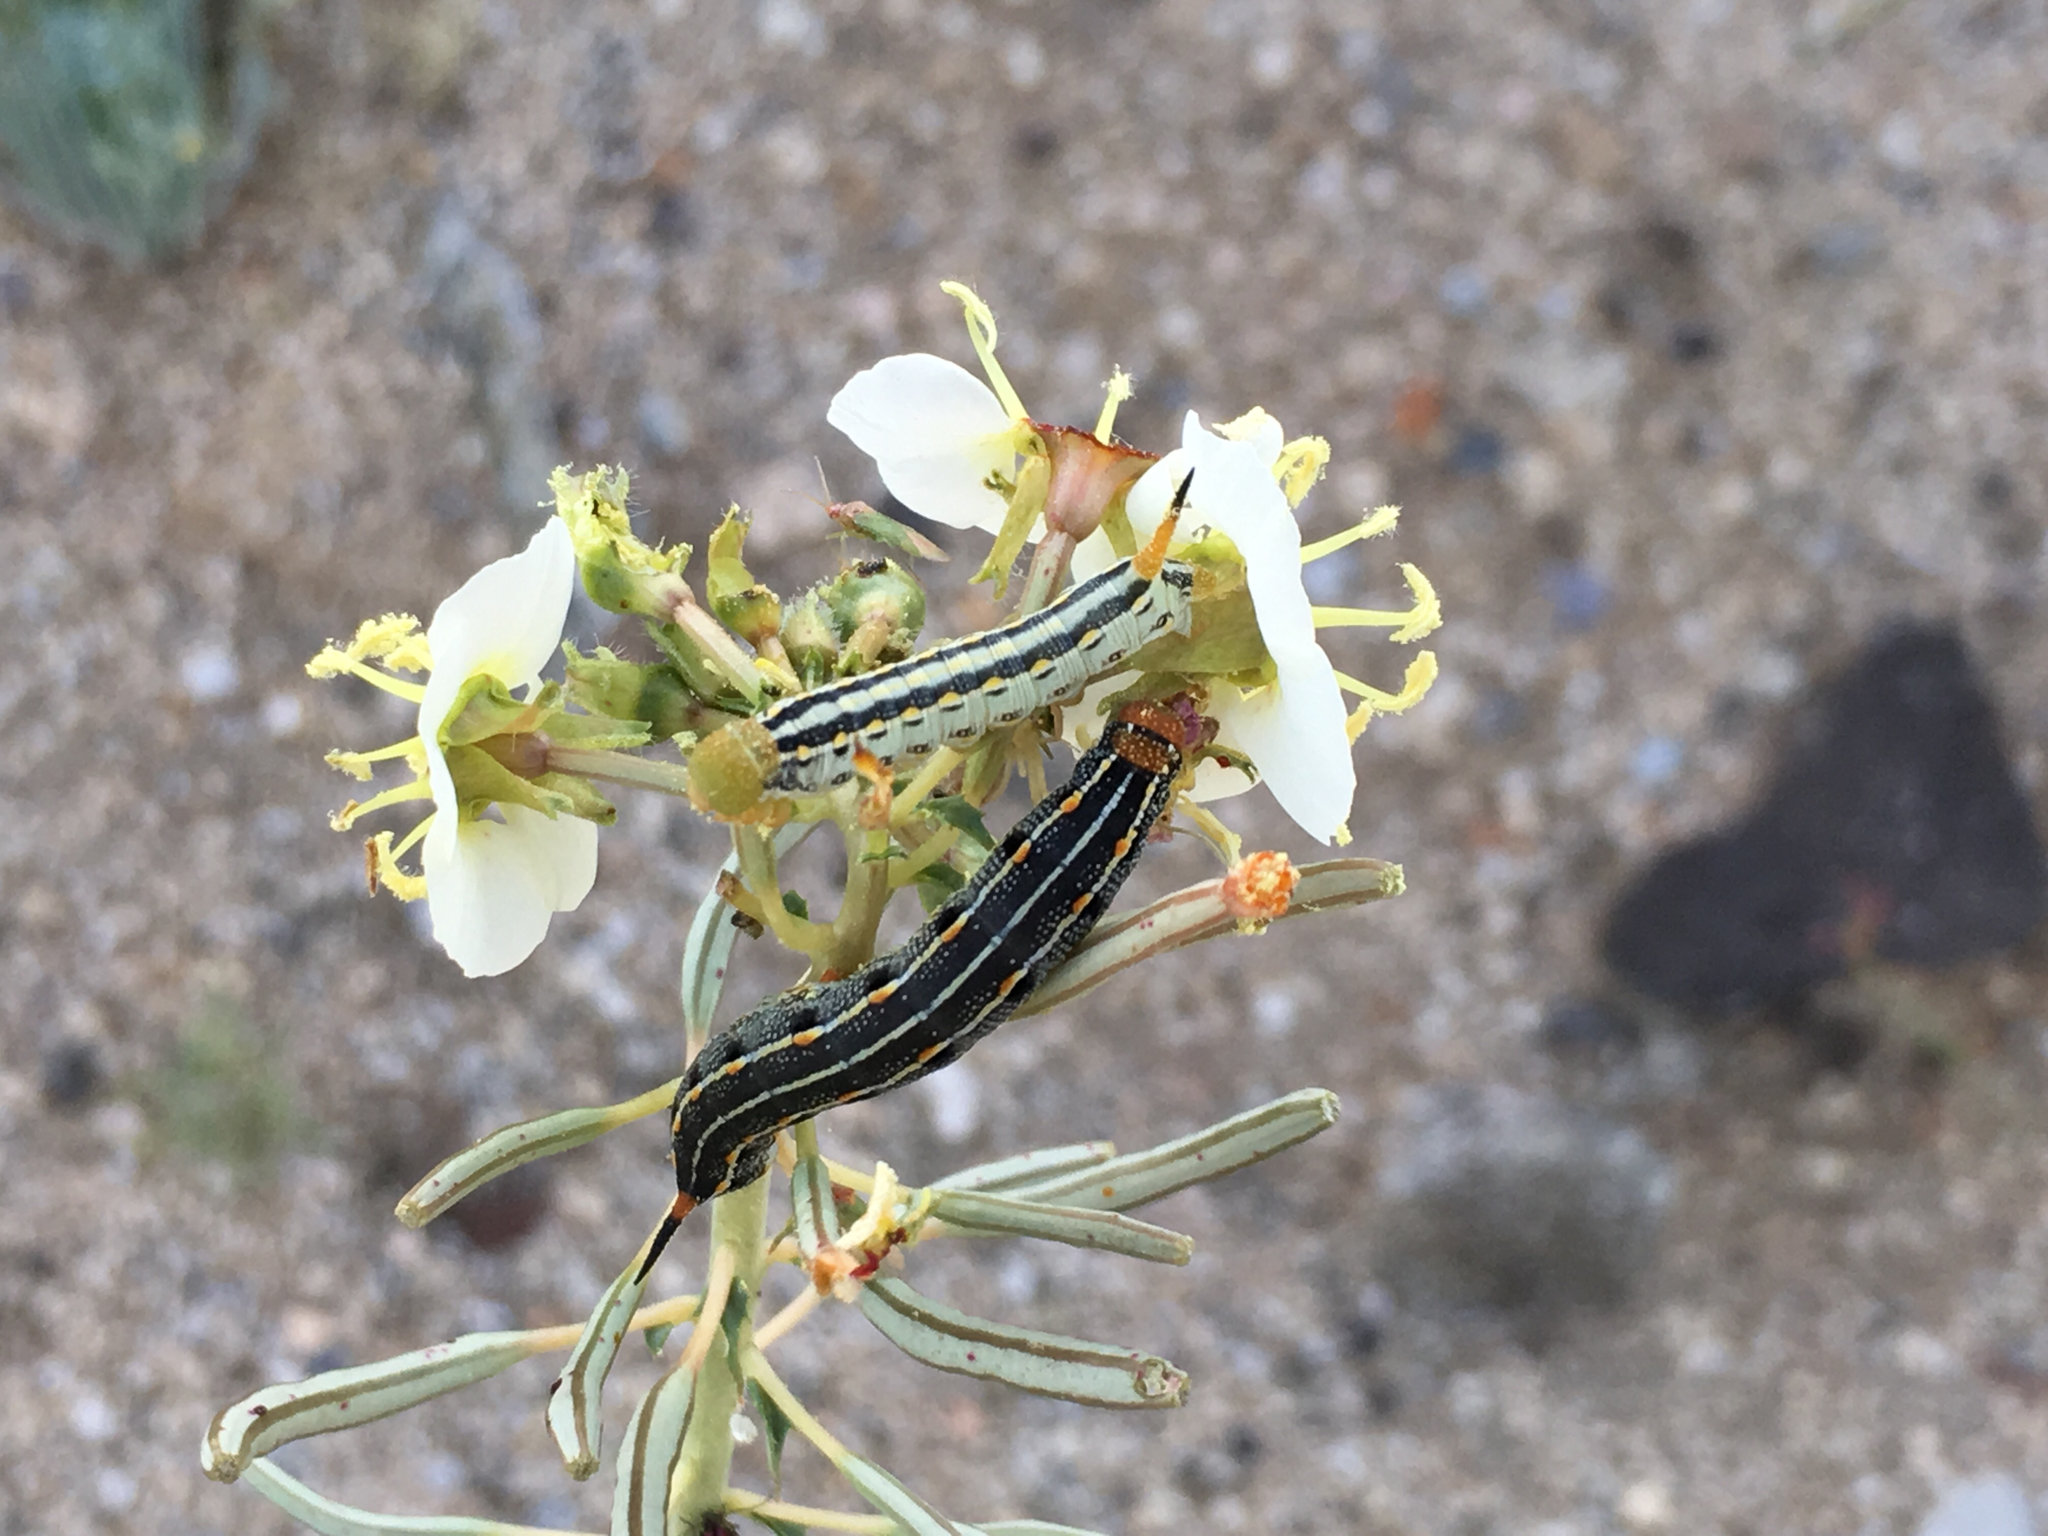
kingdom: Animalia
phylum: Arthropoda
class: Insecta
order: Lepidoptera
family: Sphingidae
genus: Hyles
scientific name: Hyles lineata
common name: White-lined sphinx
